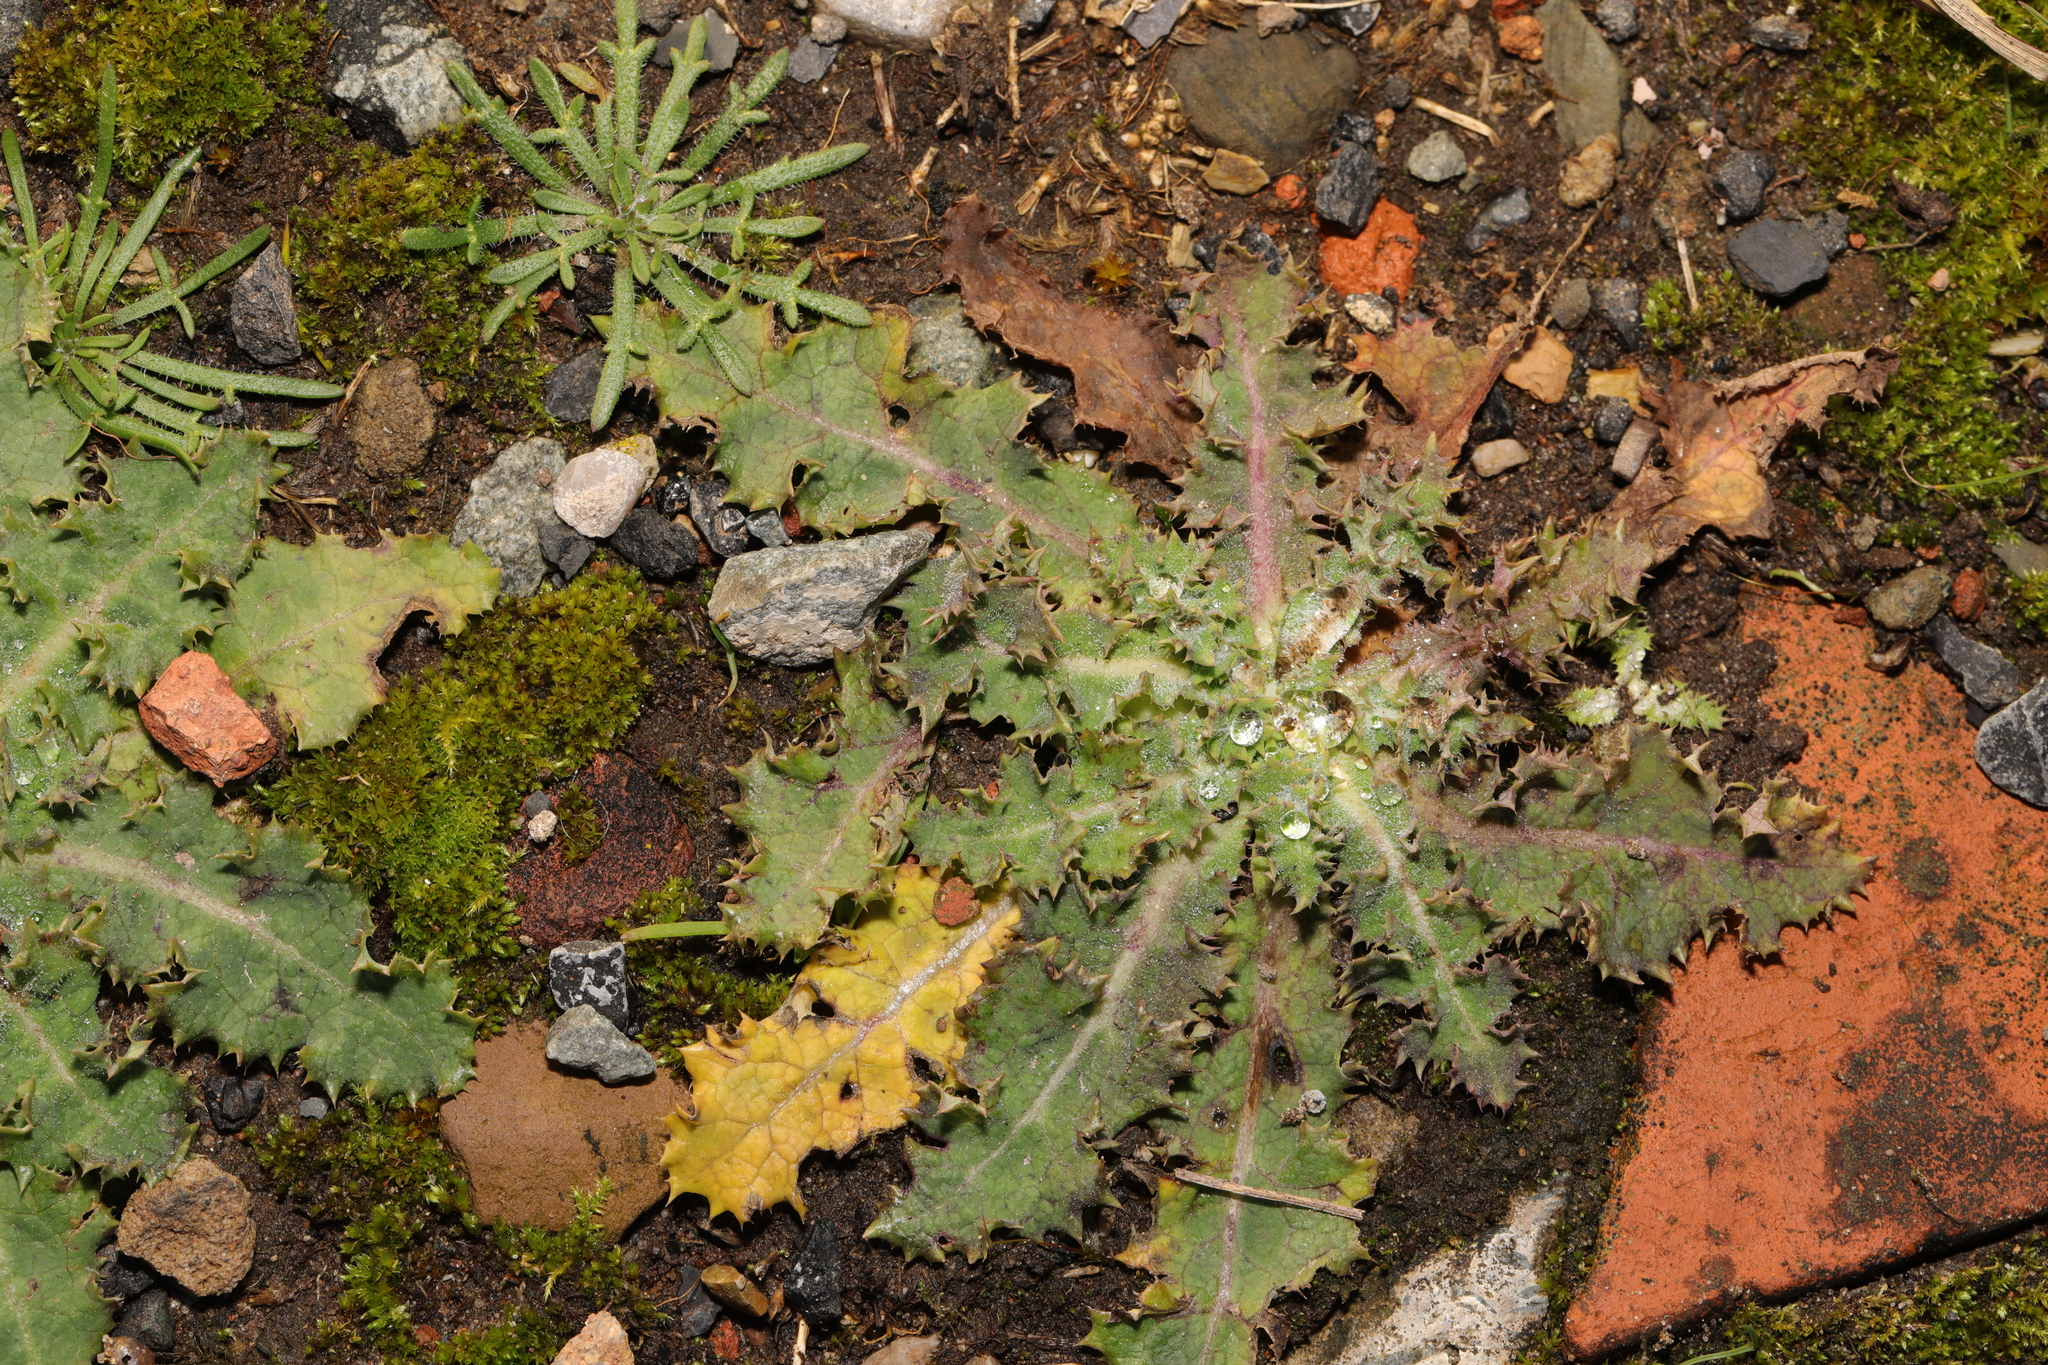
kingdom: Plantae
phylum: Tracheophyta
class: Magnoliopsida
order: Asterales
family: Asteraceae
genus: Sonchus
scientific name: Sonchus asper
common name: Prickly sow-thistle
